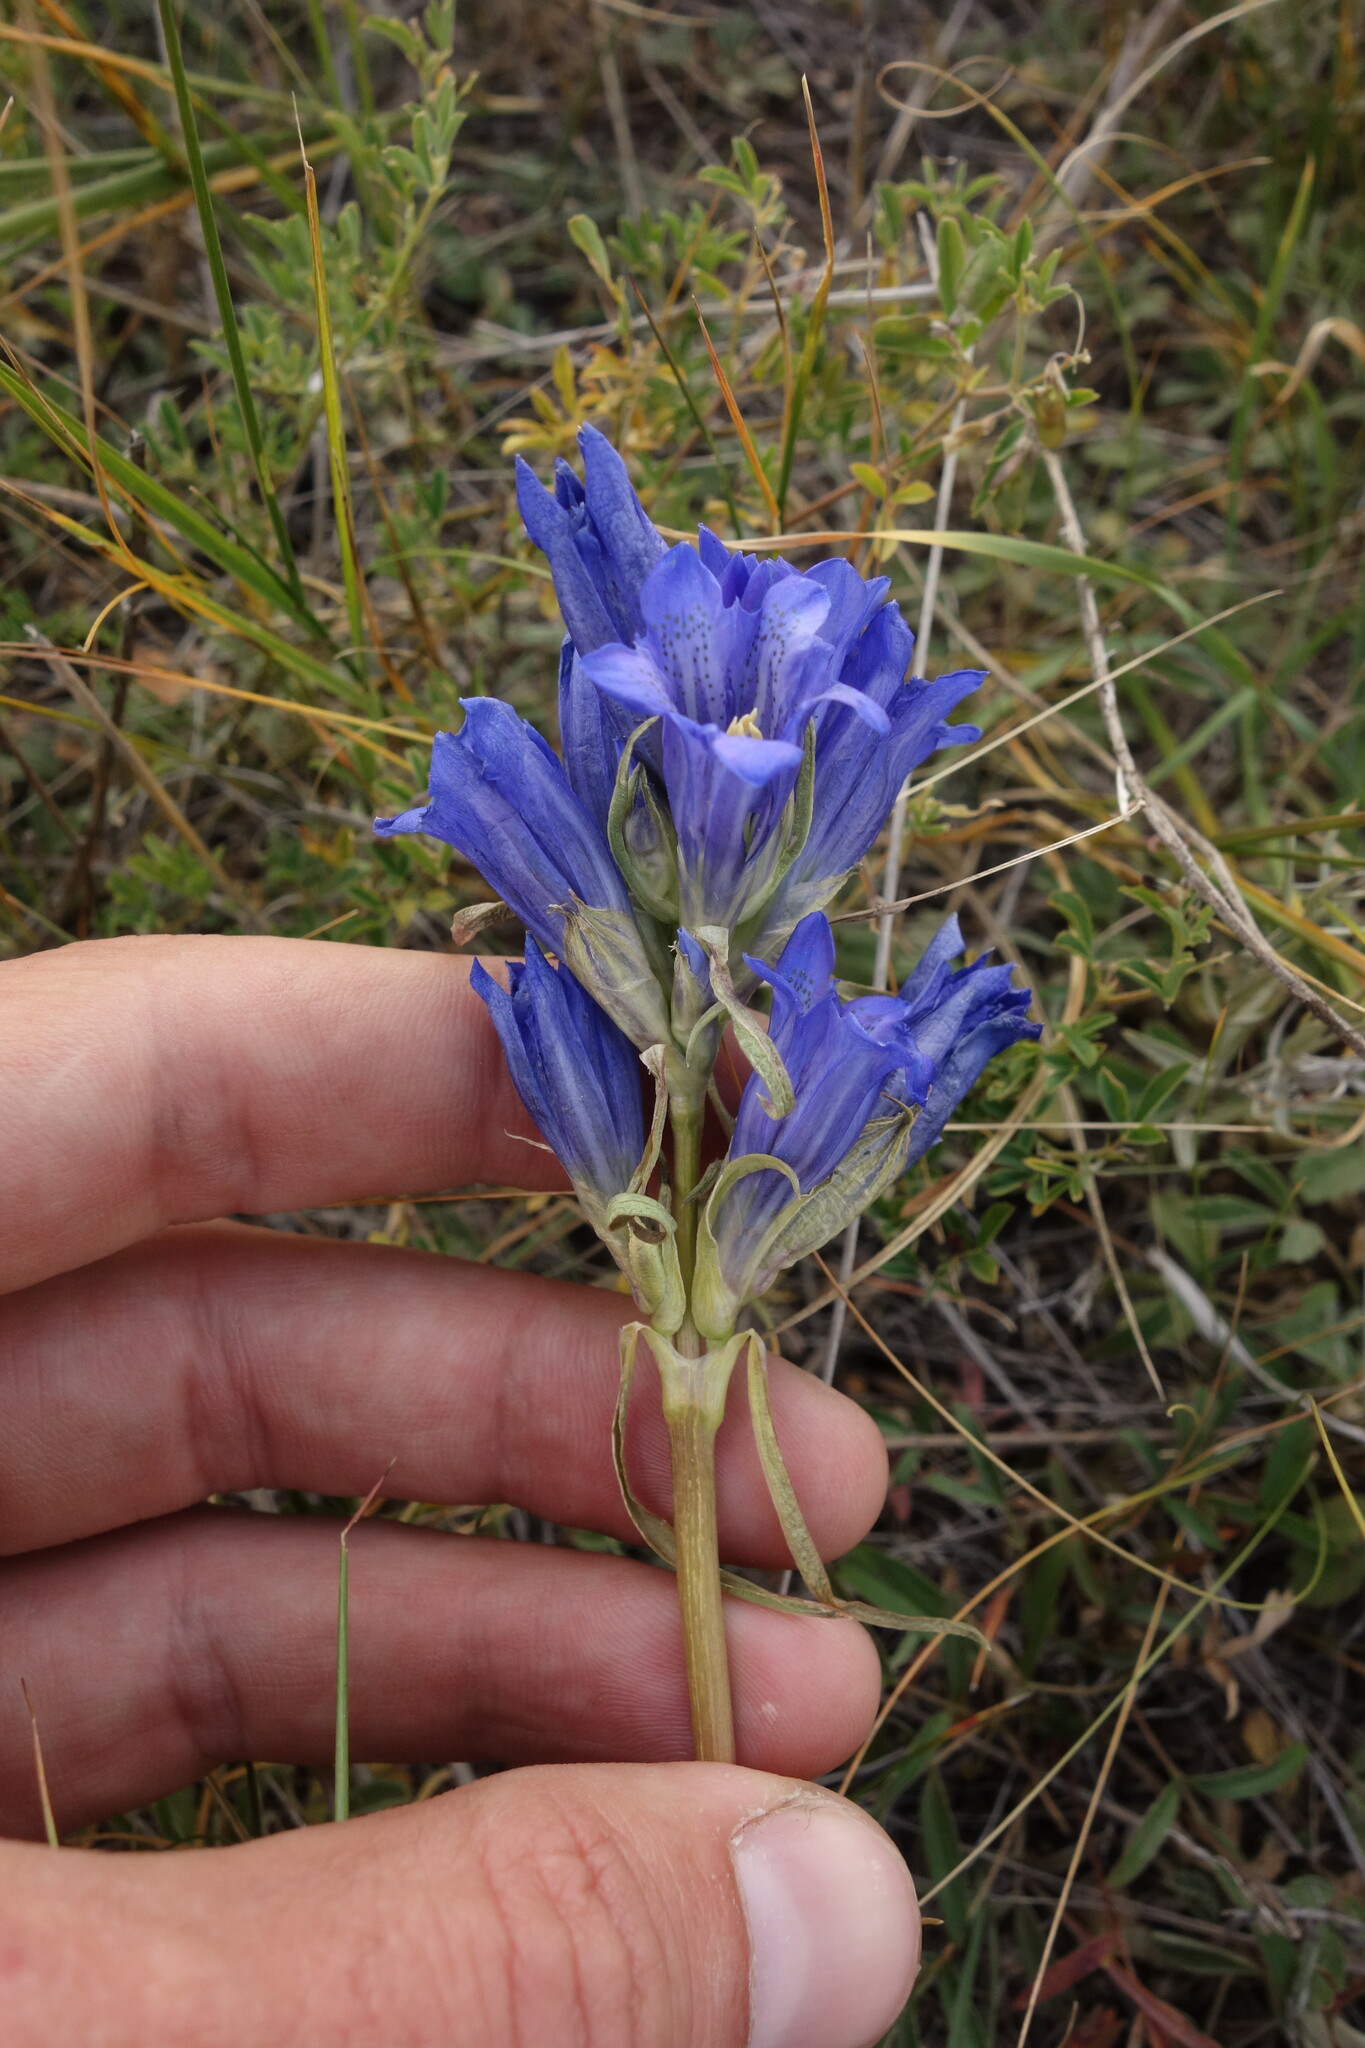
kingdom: Plantae
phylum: Tracheophyta
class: Magnoliopsida
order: Gentianales
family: Gentianaceae
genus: Gentiana
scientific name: Gentiana decumbens
